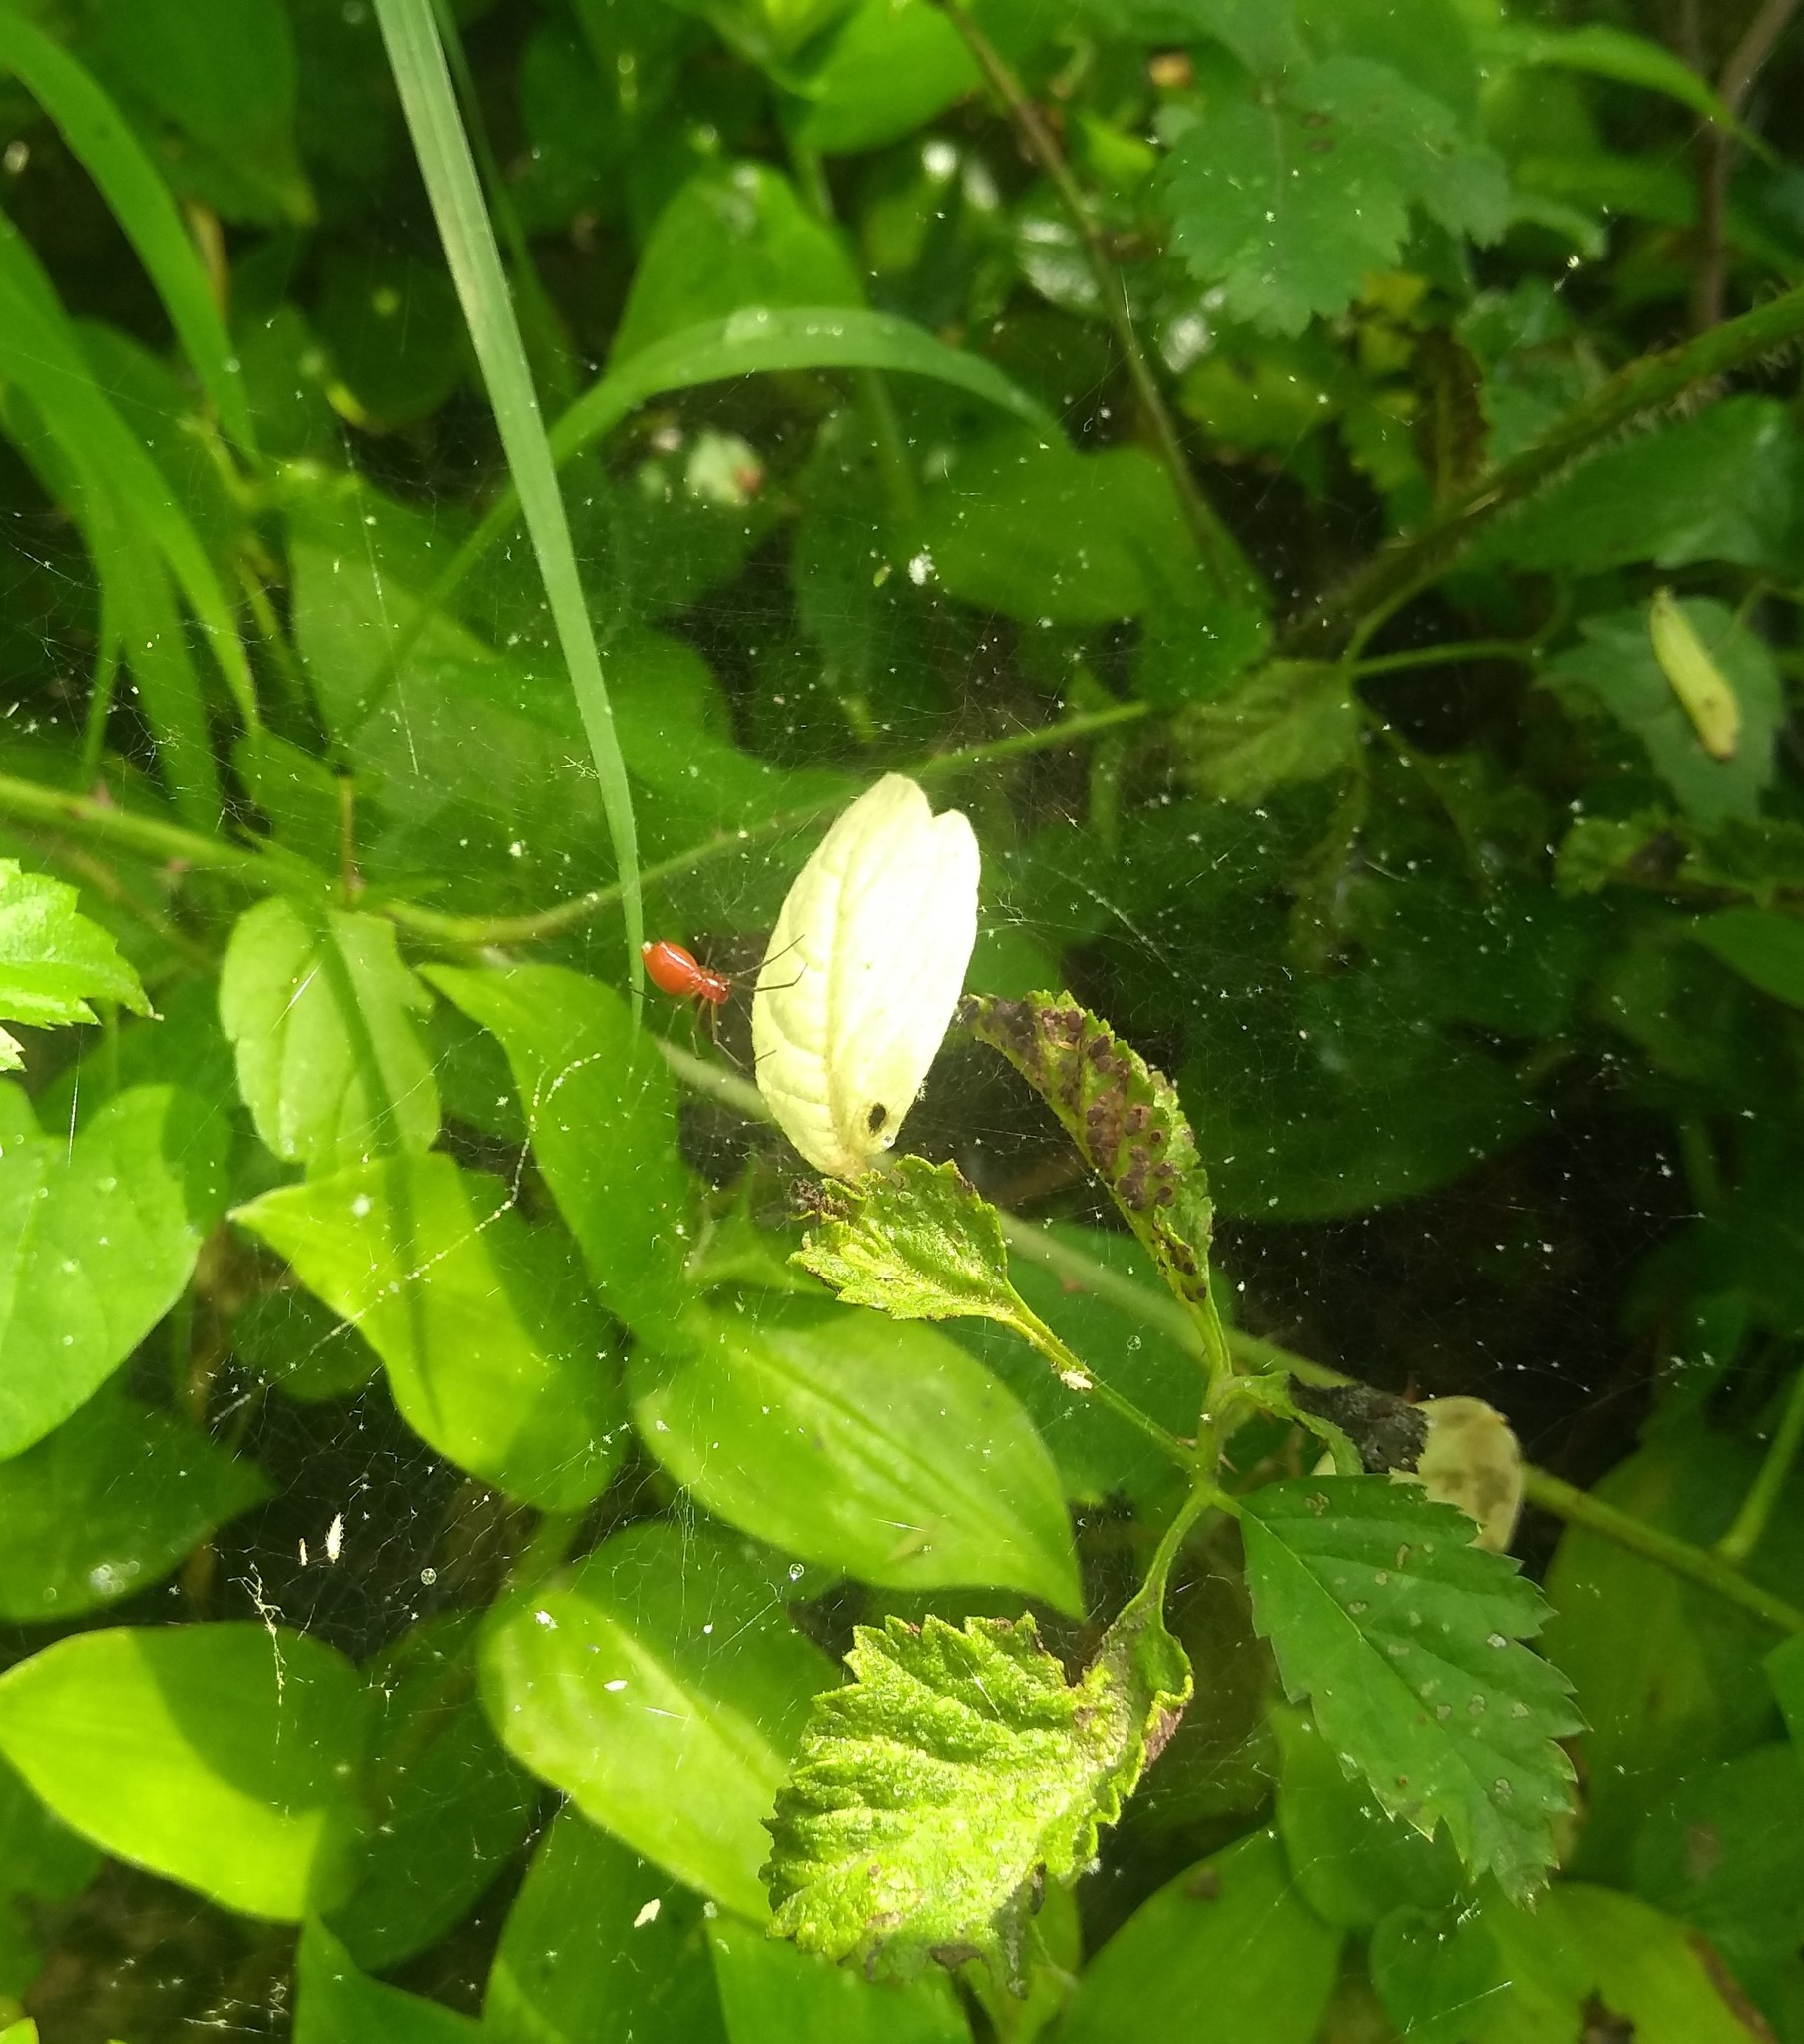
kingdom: Animalia
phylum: Arthropoda
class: Arachnida
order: Araneae
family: Linyphiidae
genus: Florinda
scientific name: Florinda coccinea
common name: Black-tailed red sheetweaver
